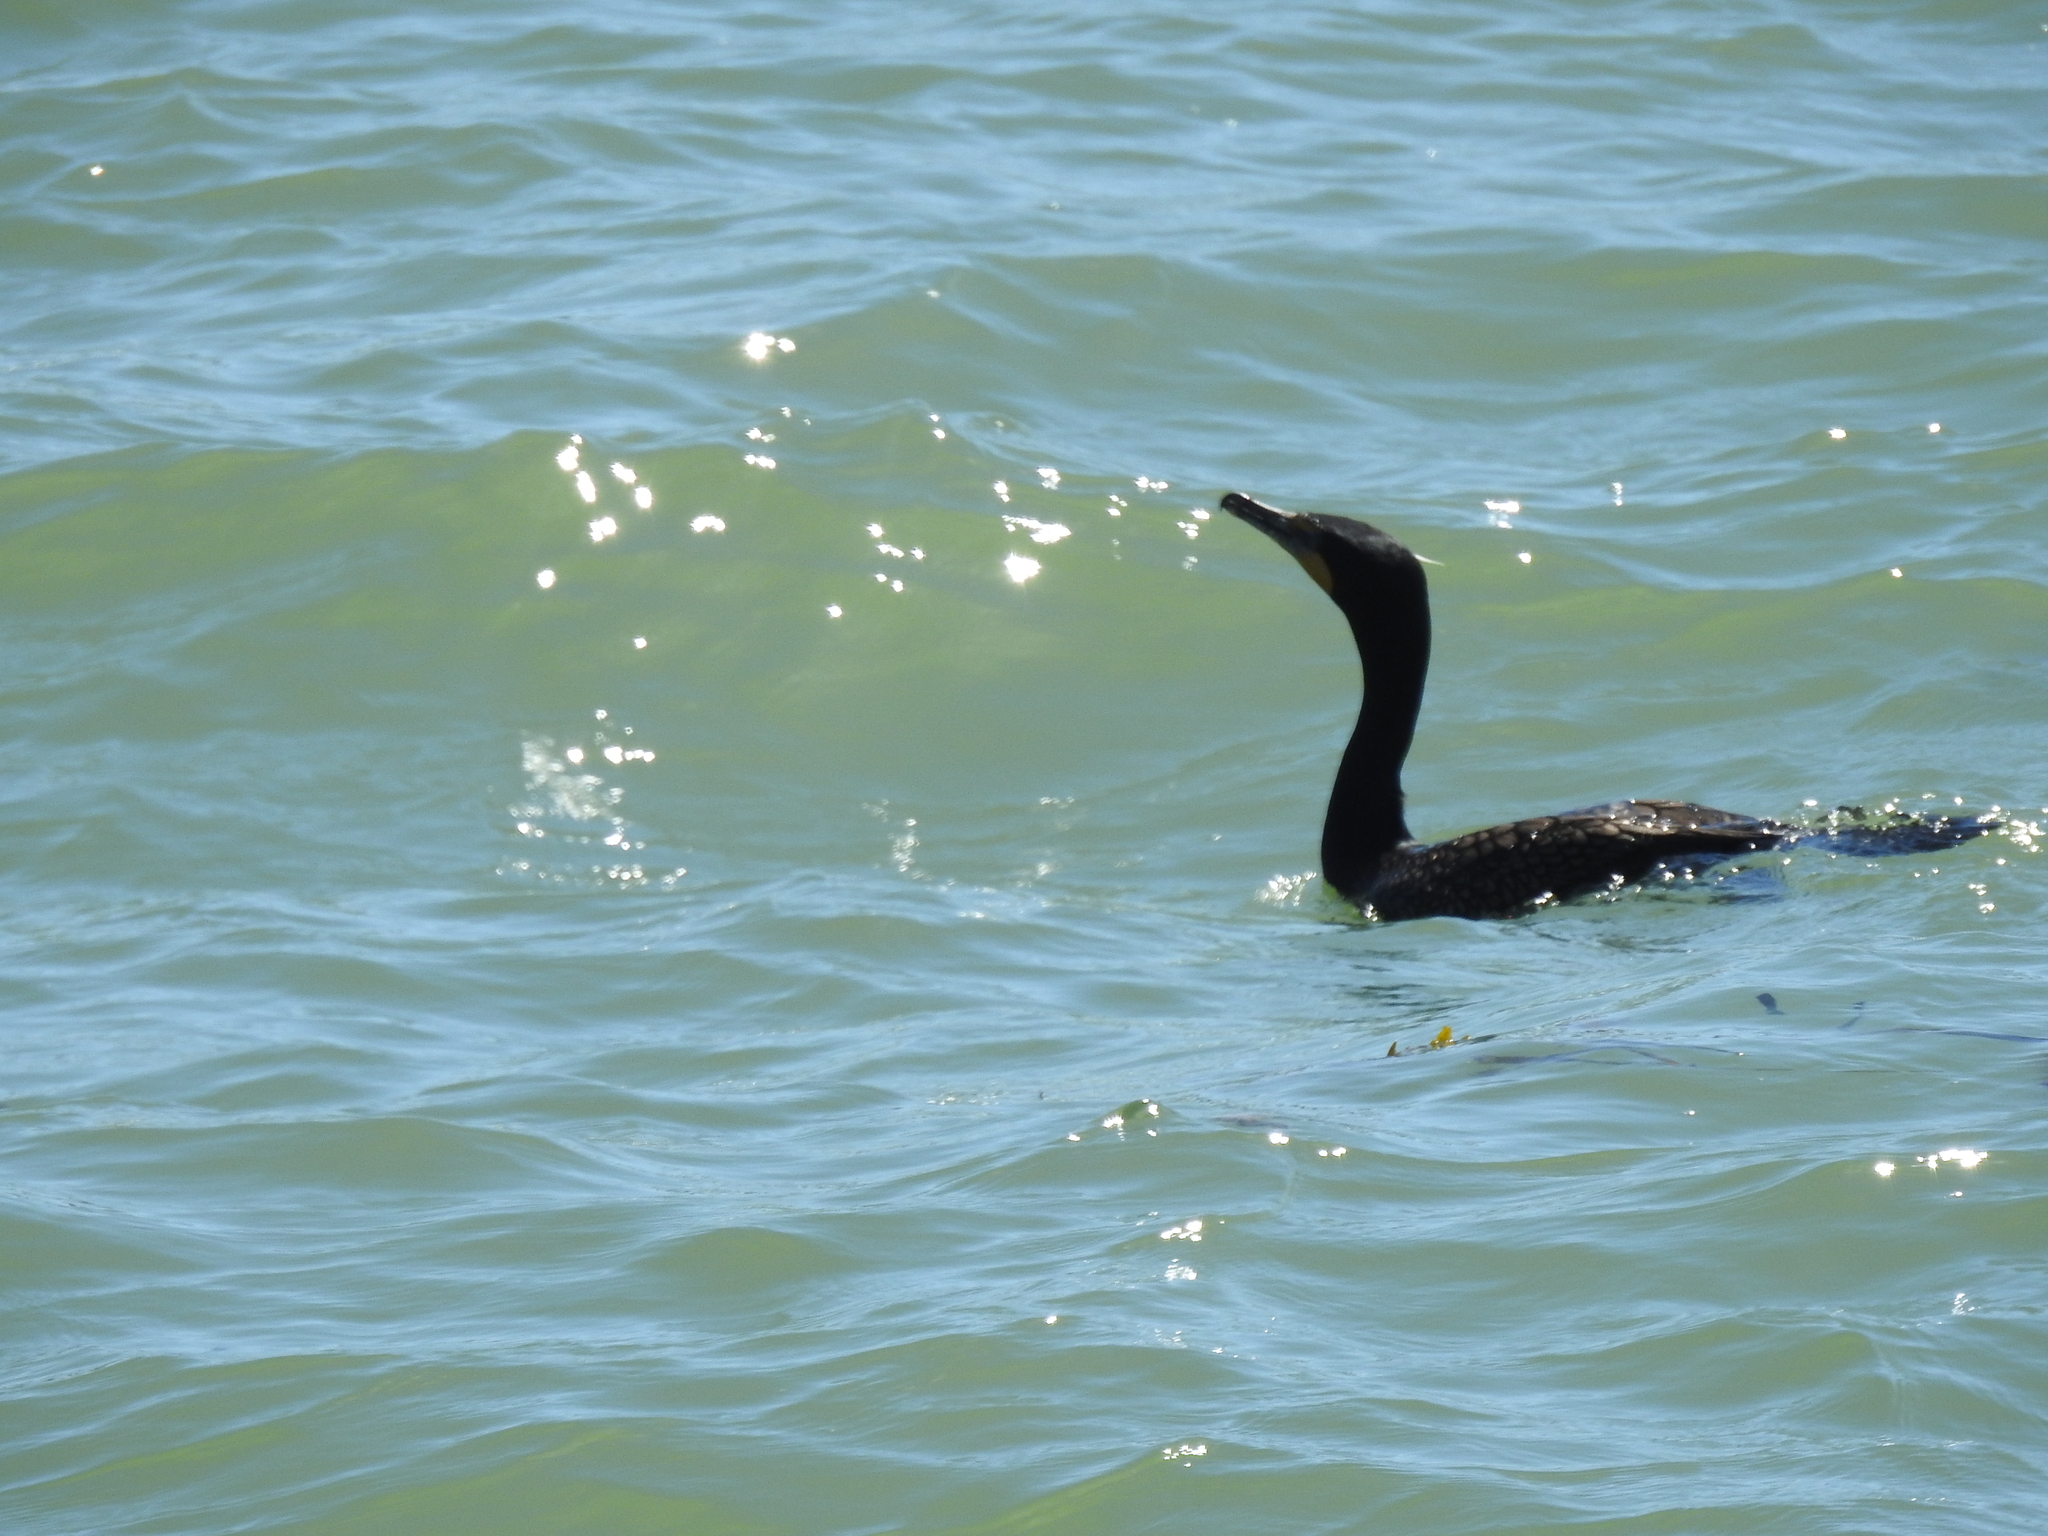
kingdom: Animalia
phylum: Chordata
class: Aves
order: Suliformes
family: Phalacrocoracidae
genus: Phalacrocorax
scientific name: Phalacrocorax auritus
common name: Double-crested cormorant
